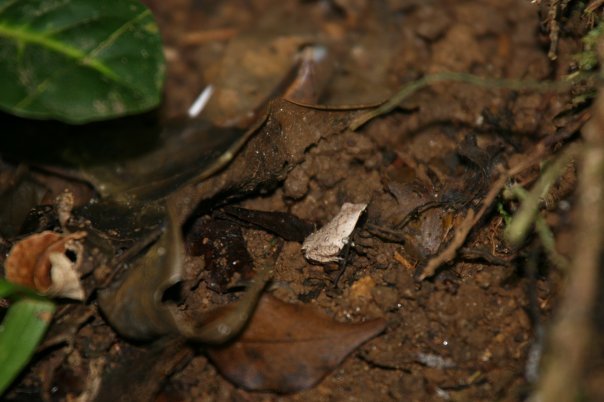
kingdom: Animalia
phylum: Chordata
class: Amphibia
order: Anura
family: Microhylidae
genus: Plethodontohyla
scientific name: Plethodontohyla notosticta
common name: Mahanoro digging frog
